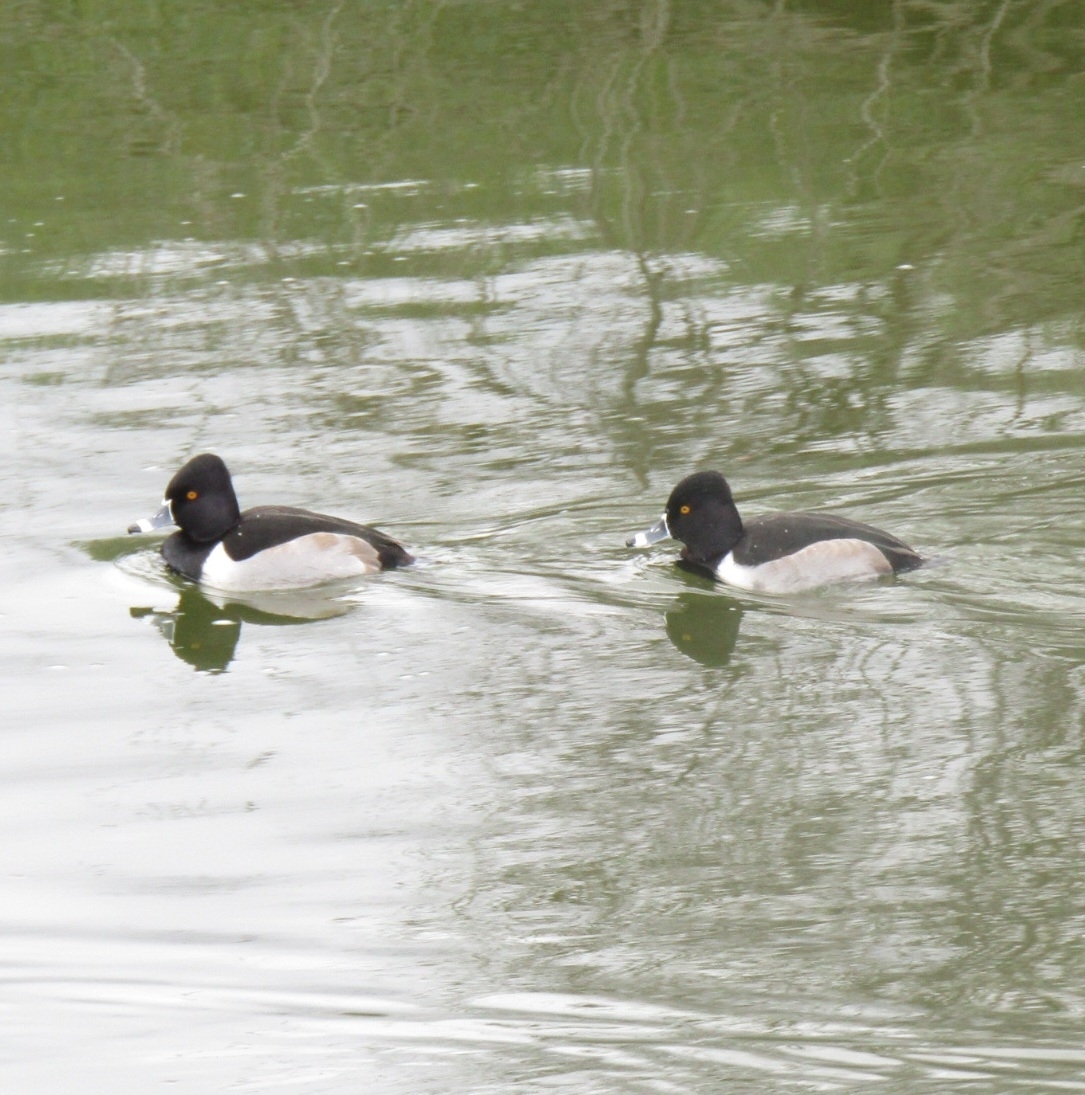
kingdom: Animalia
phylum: Chordata
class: Aves
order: Anseriformes
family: Anatidae
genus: Aythya
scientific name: Aythya collaris
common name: Ring-necked duck
